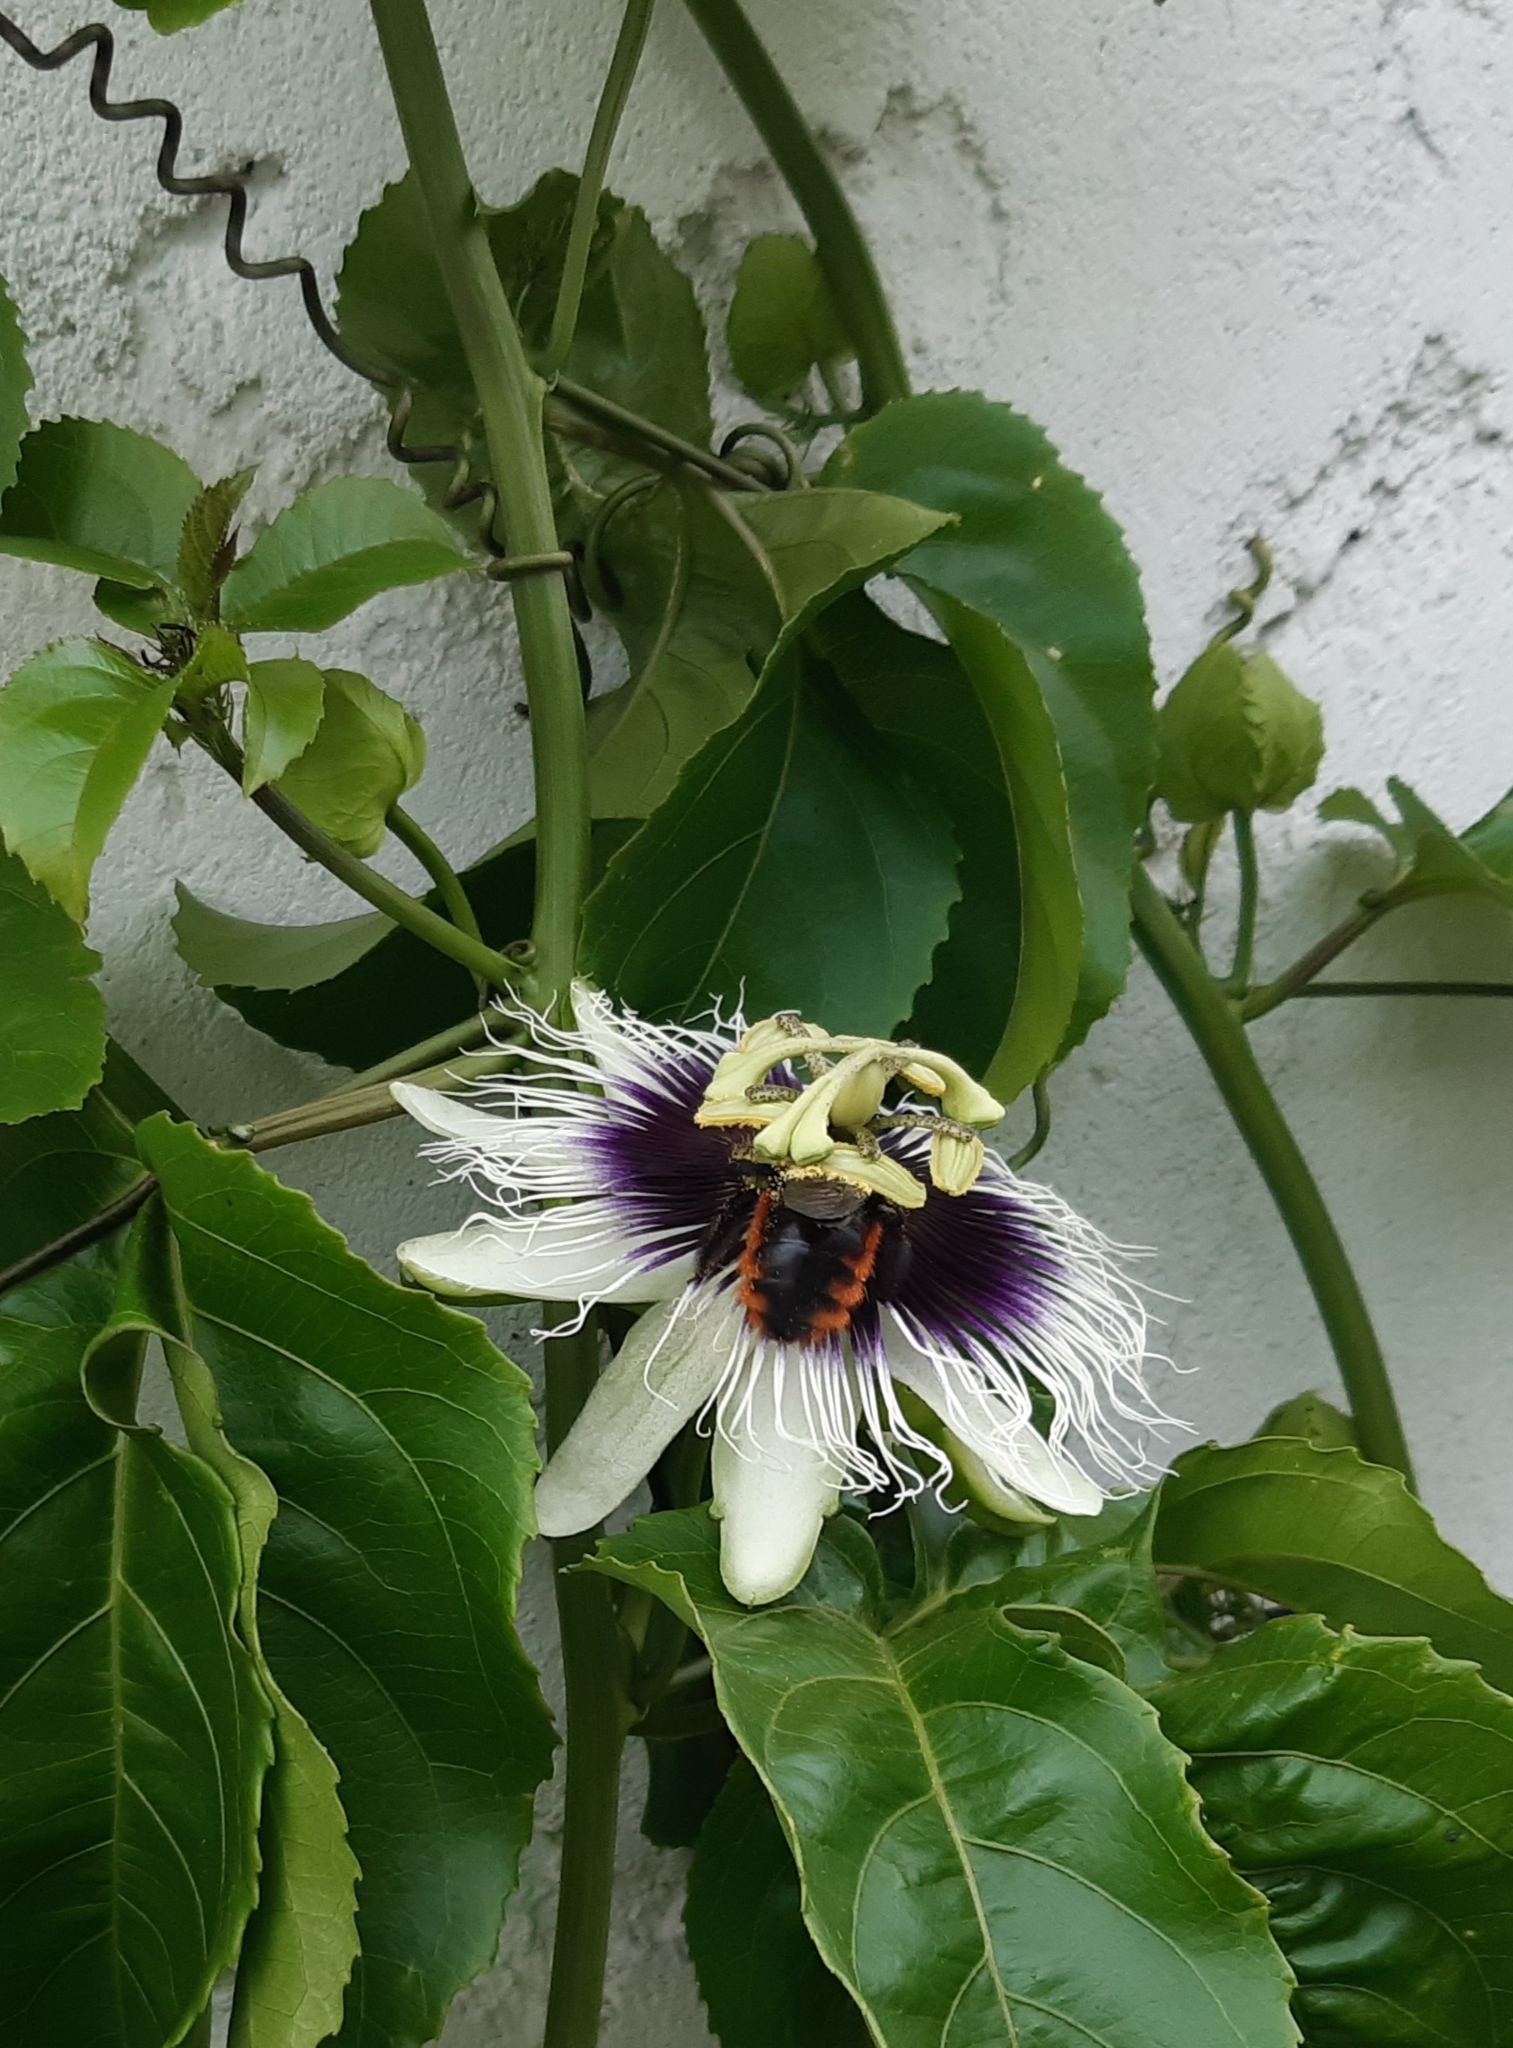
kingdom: Animalia
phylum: Arthropoda
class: Insecta
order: Hymenoptera
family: Apidae
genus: Xylocopa
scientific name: Xylocopa augusti
